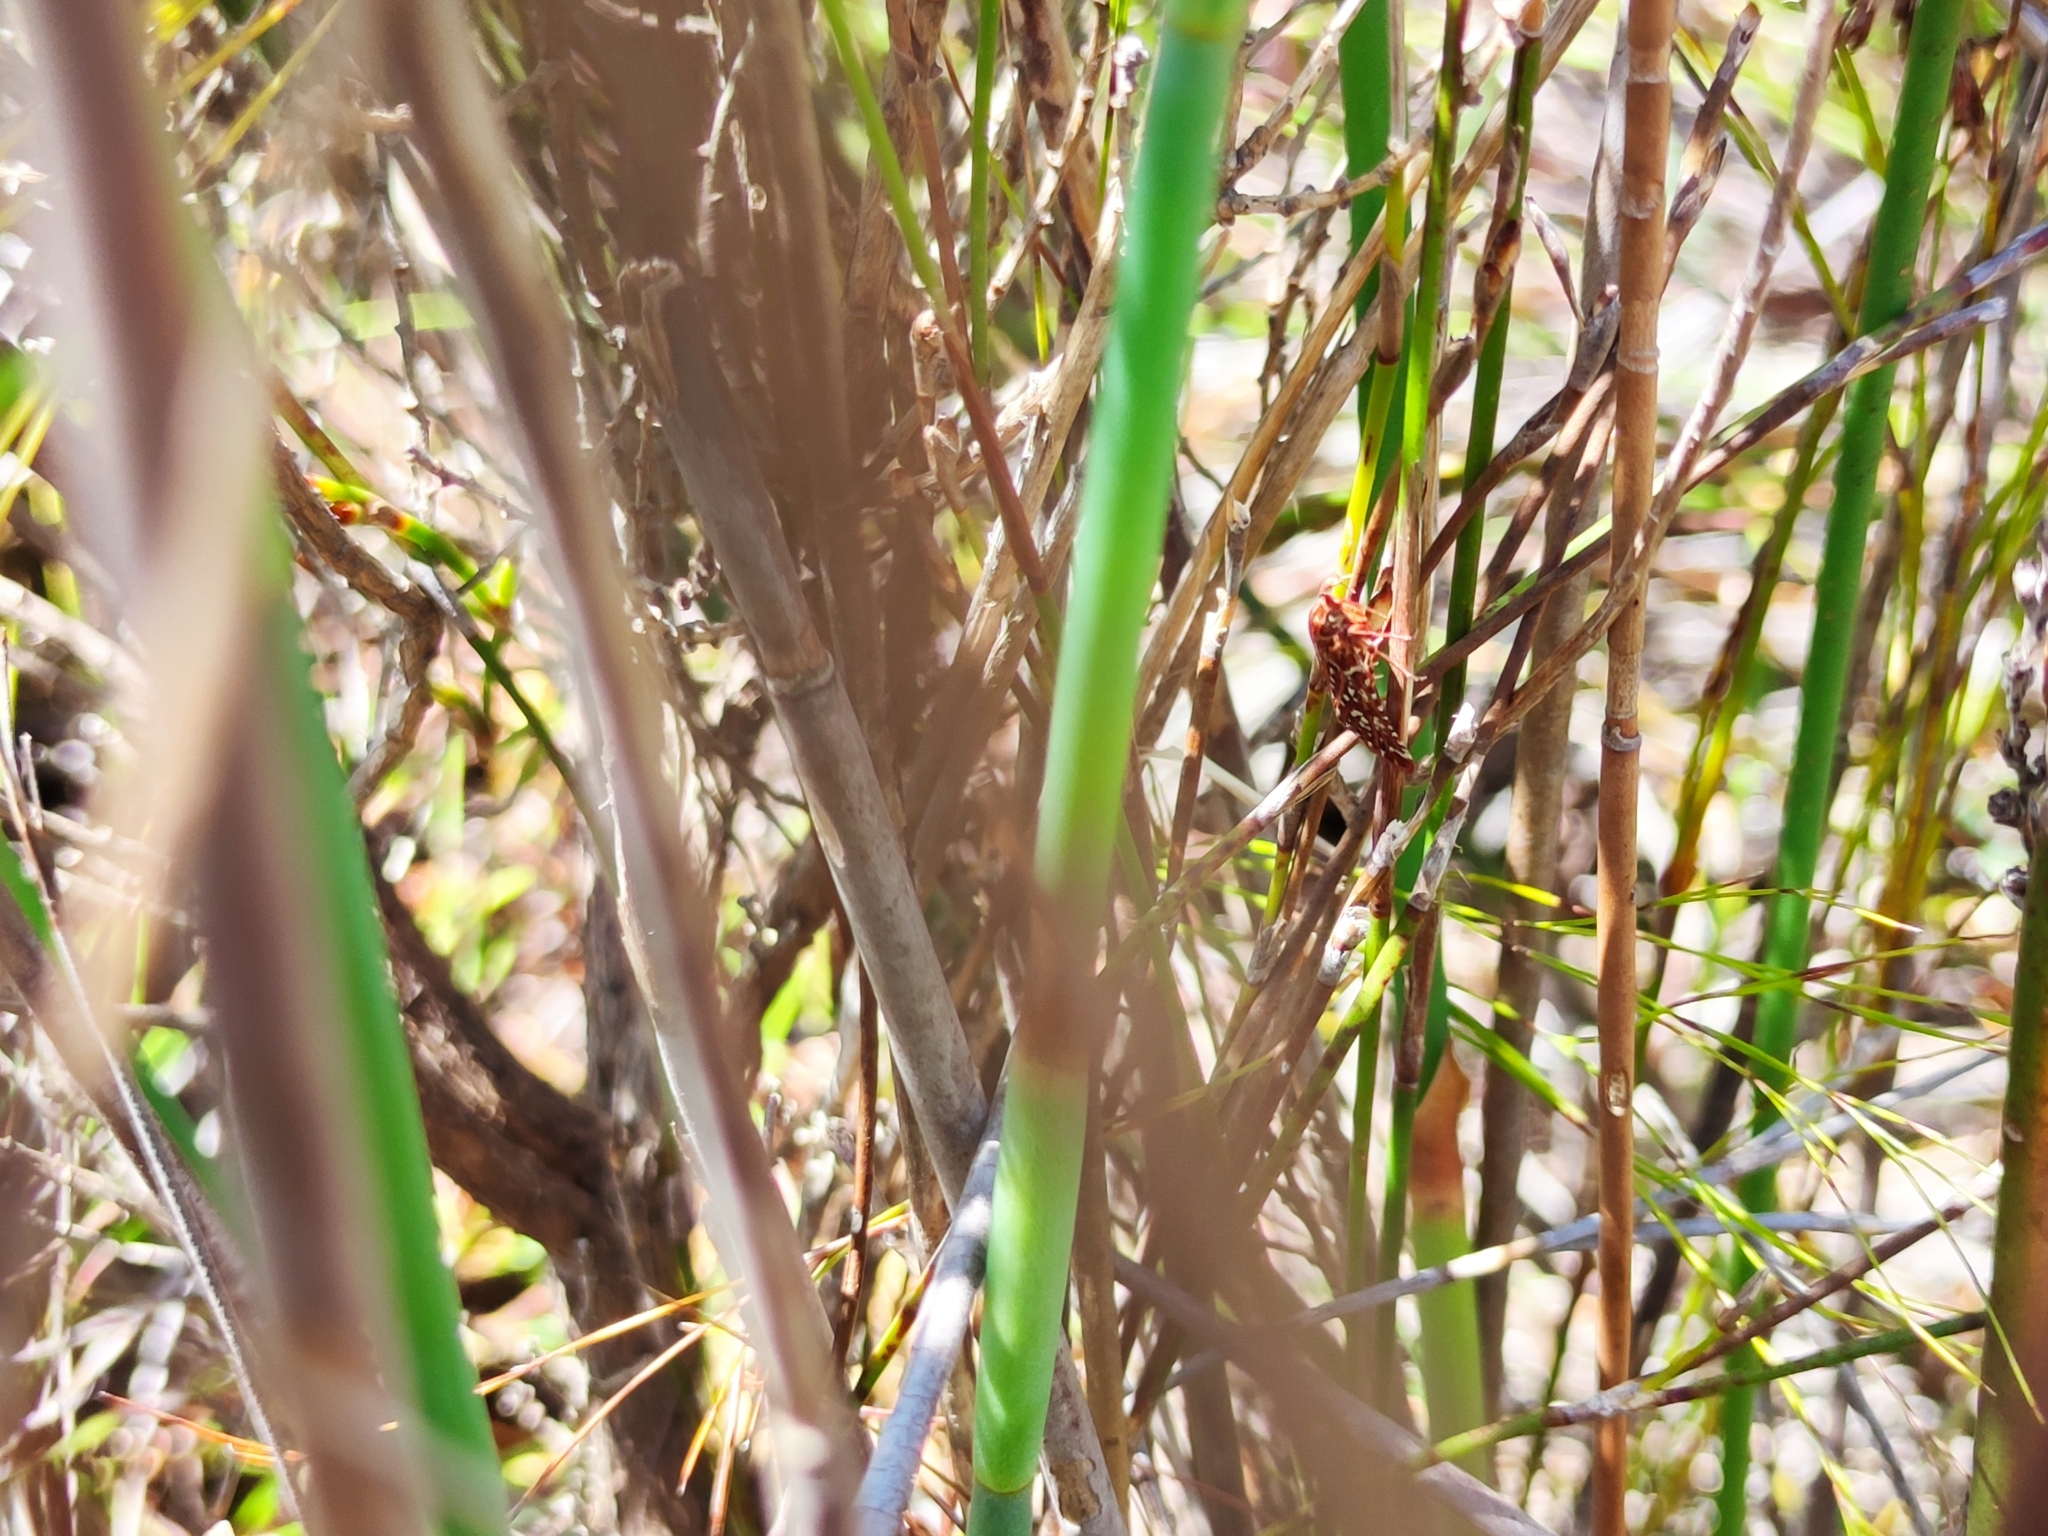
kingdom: Animalia
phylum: Arthropoda
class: Insecta
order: Lepidoptera
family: Pyralidae
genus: Triphassa
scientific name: Triphassa stalachtis
